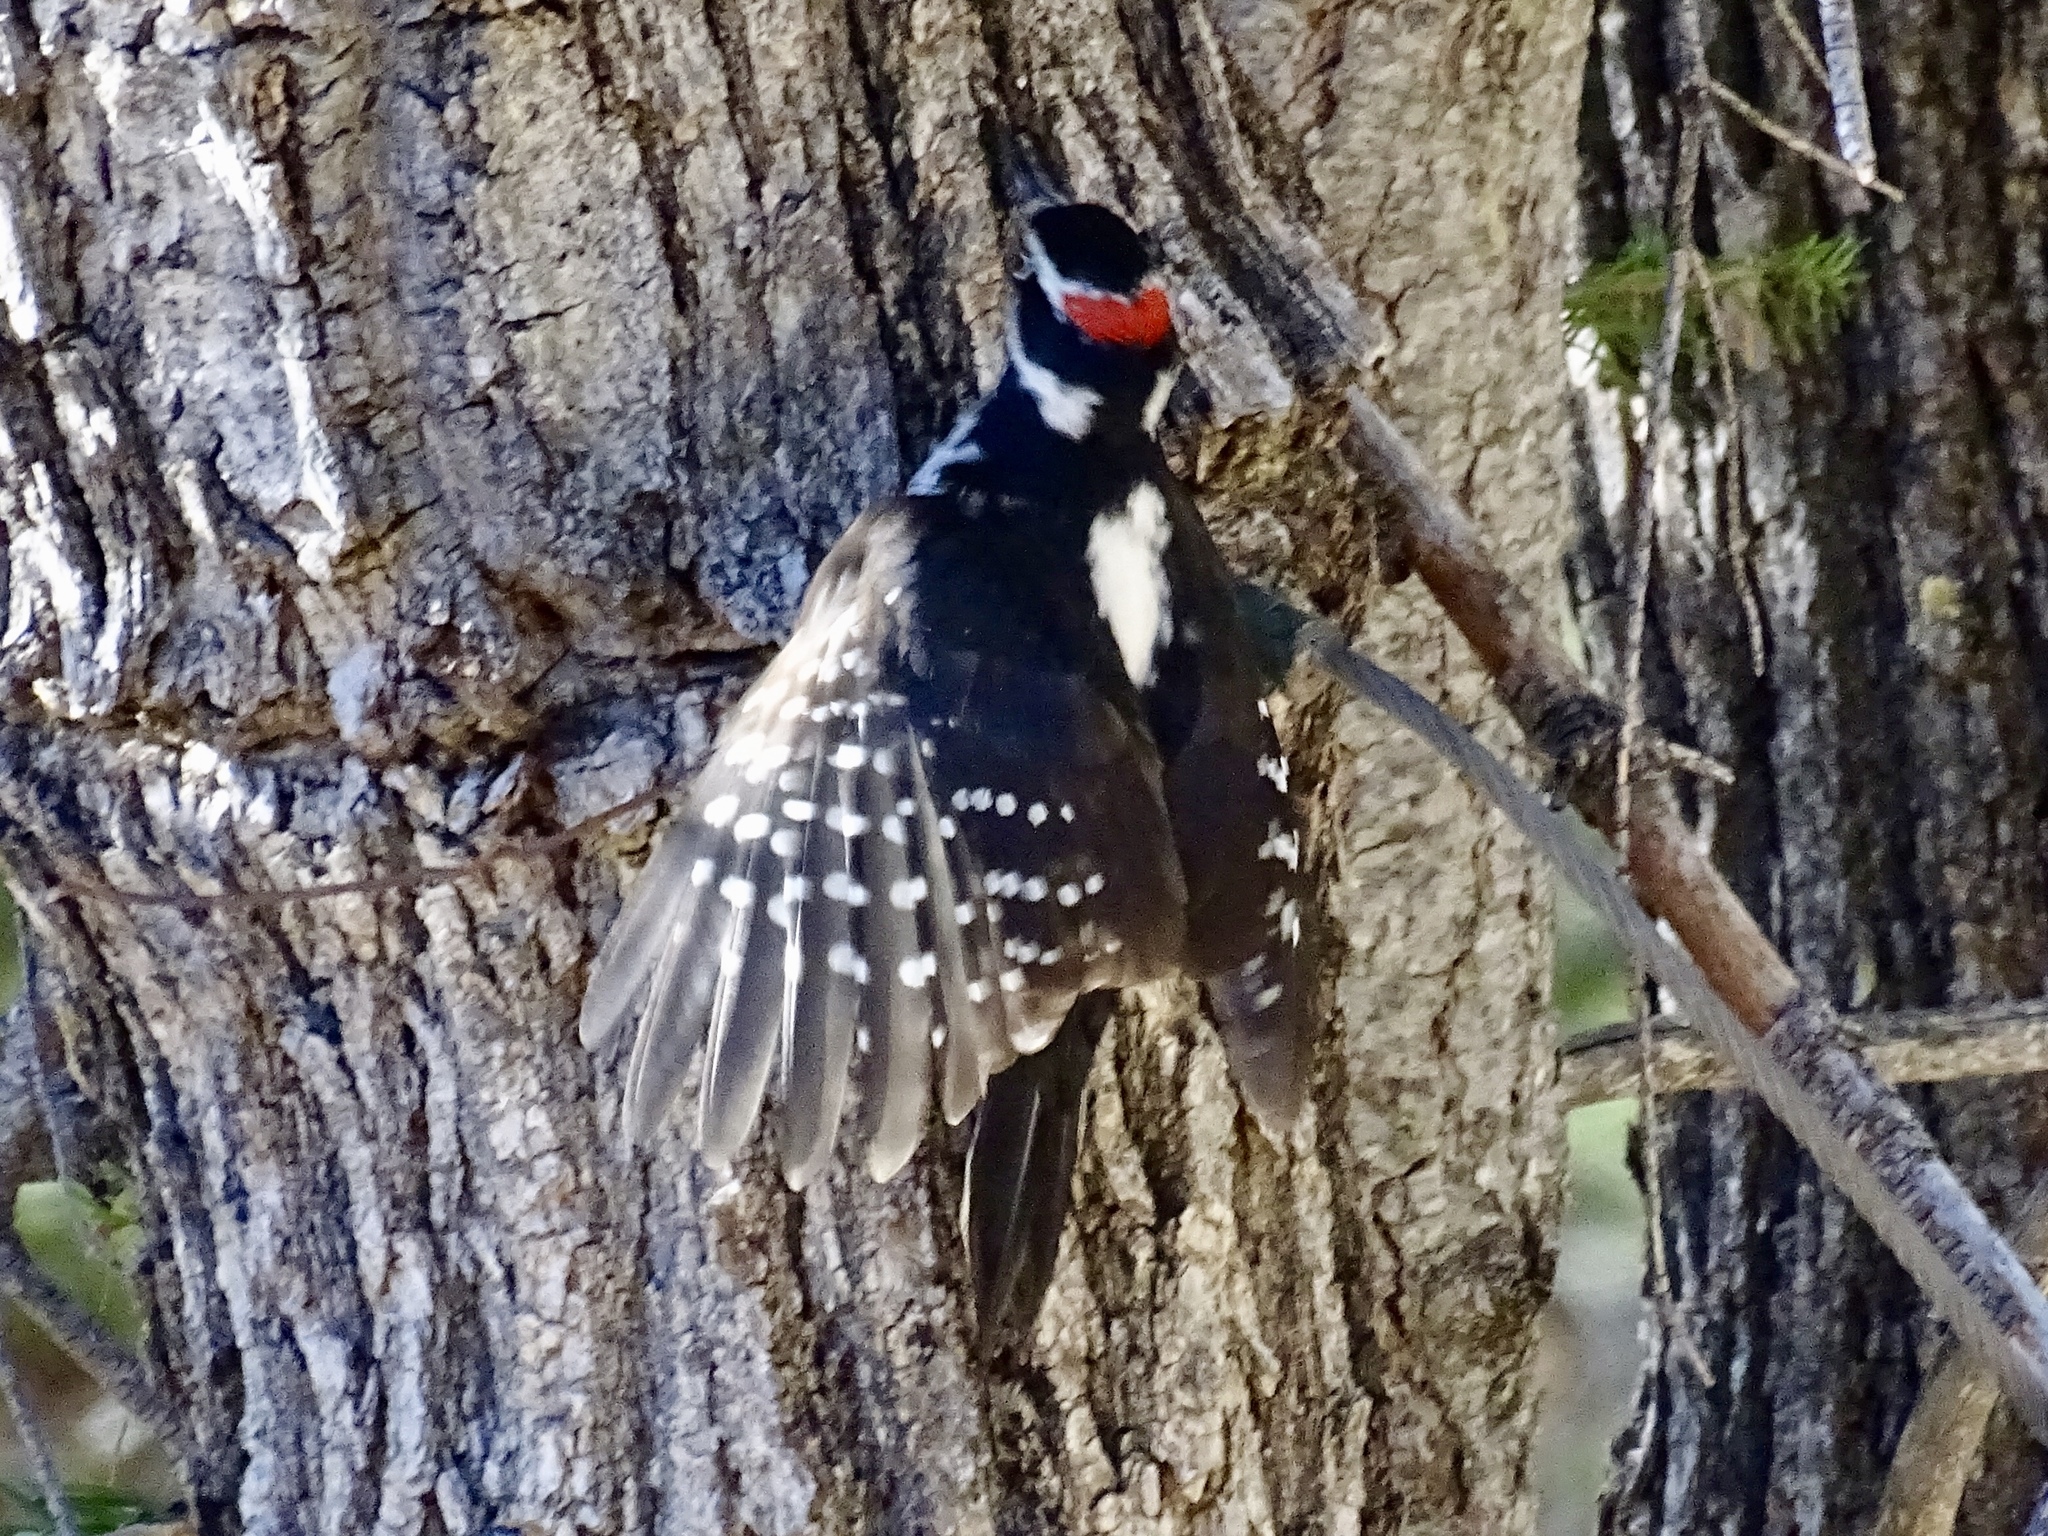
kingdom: Animalia
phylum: Chordata
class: Aves
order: Piciformes
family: Picidae
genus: Leuconotopicus
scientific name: Leuconotopicus villosus
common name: Hairy woodpecker
